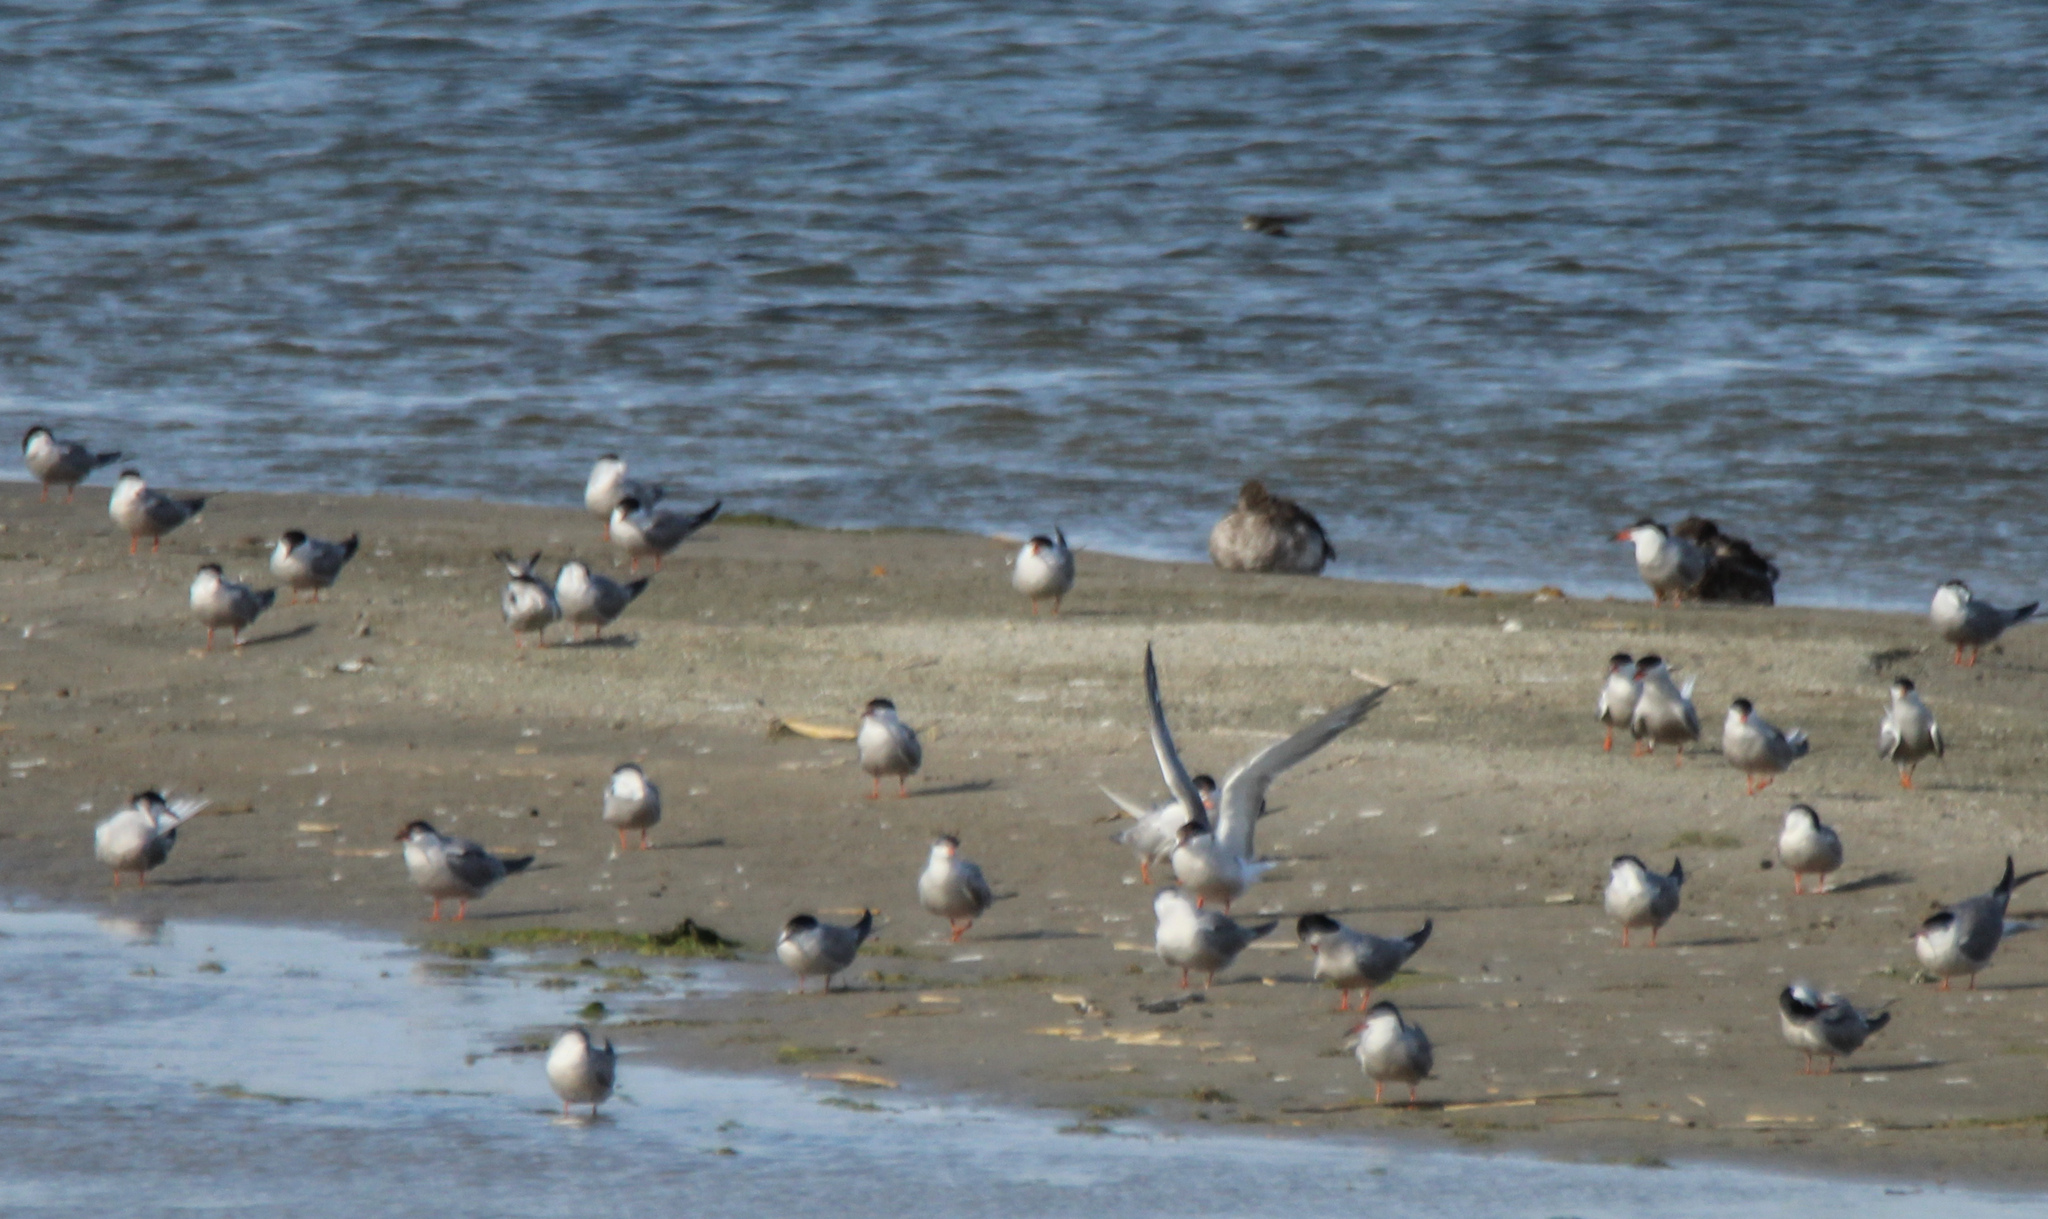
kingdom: Animalia
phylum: Chordata
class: Aves
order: Charadriiformes
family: Laridae
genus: Sterna
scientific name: Sterna hirundo
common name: Common tern
